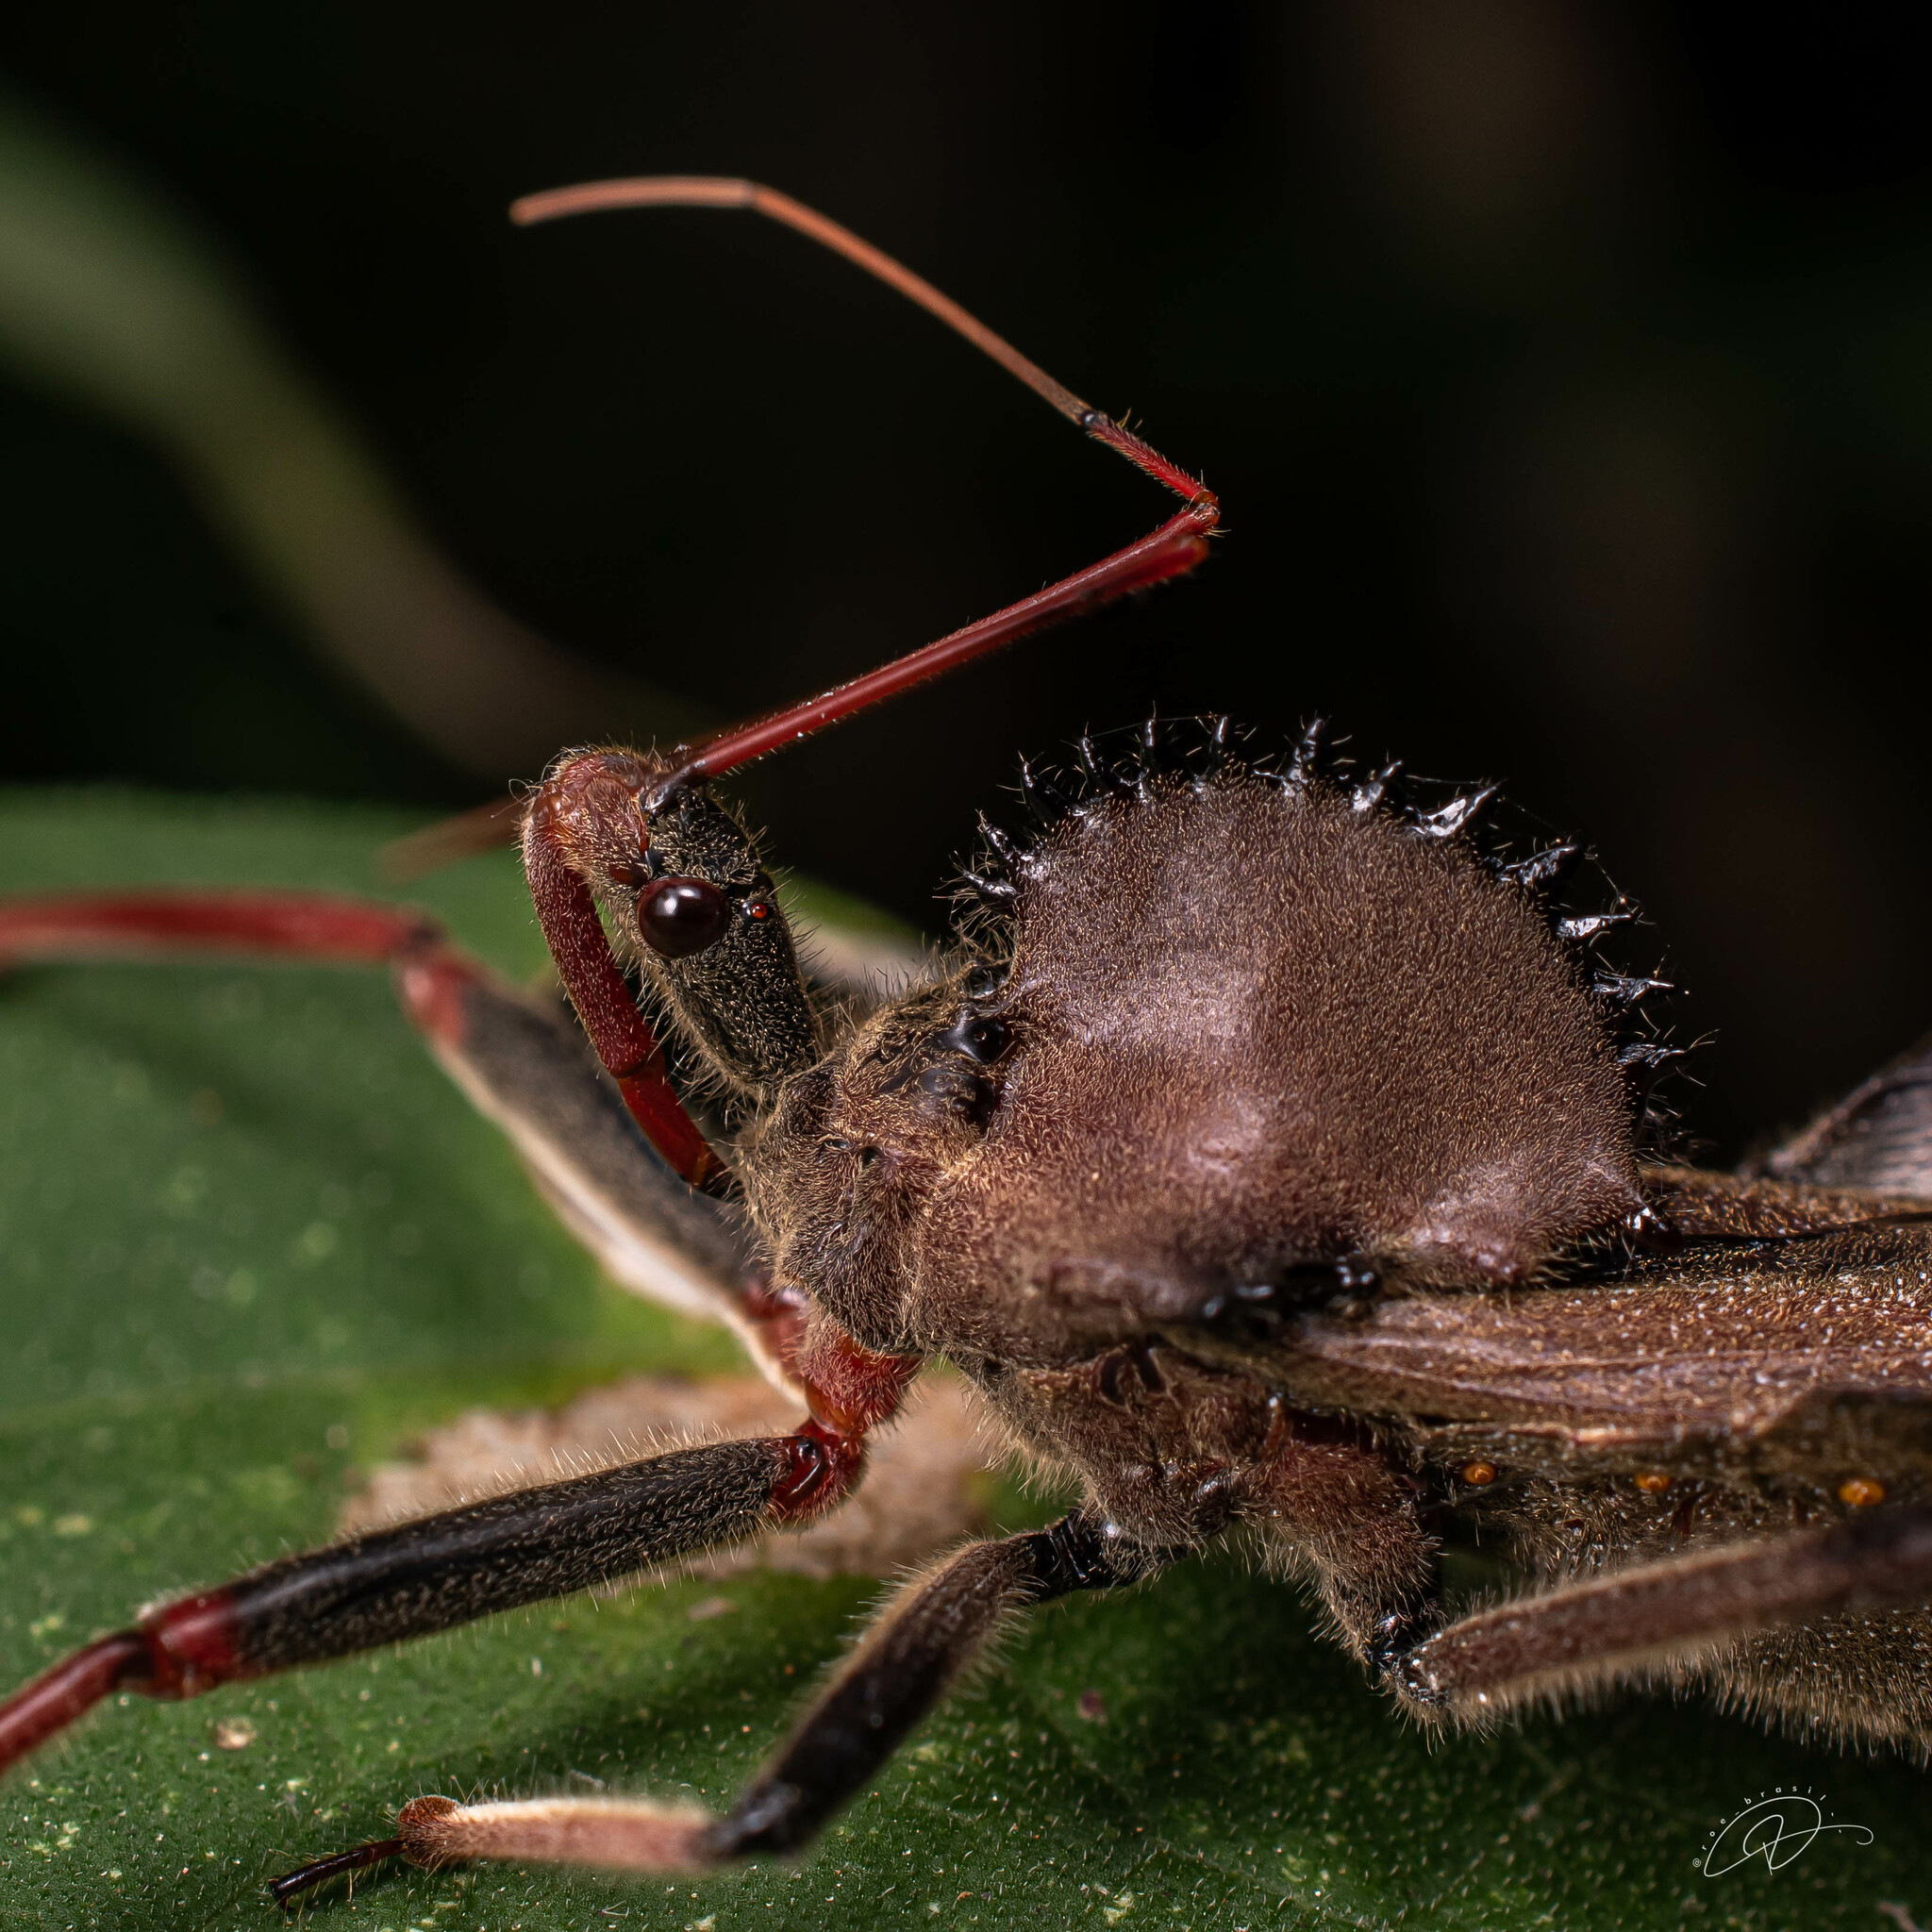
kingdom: Animalia
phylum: Arthropoda
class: Insecta
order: Hemiptera
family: Reduviidae
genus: Arilus
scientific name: Arilus carinatus
